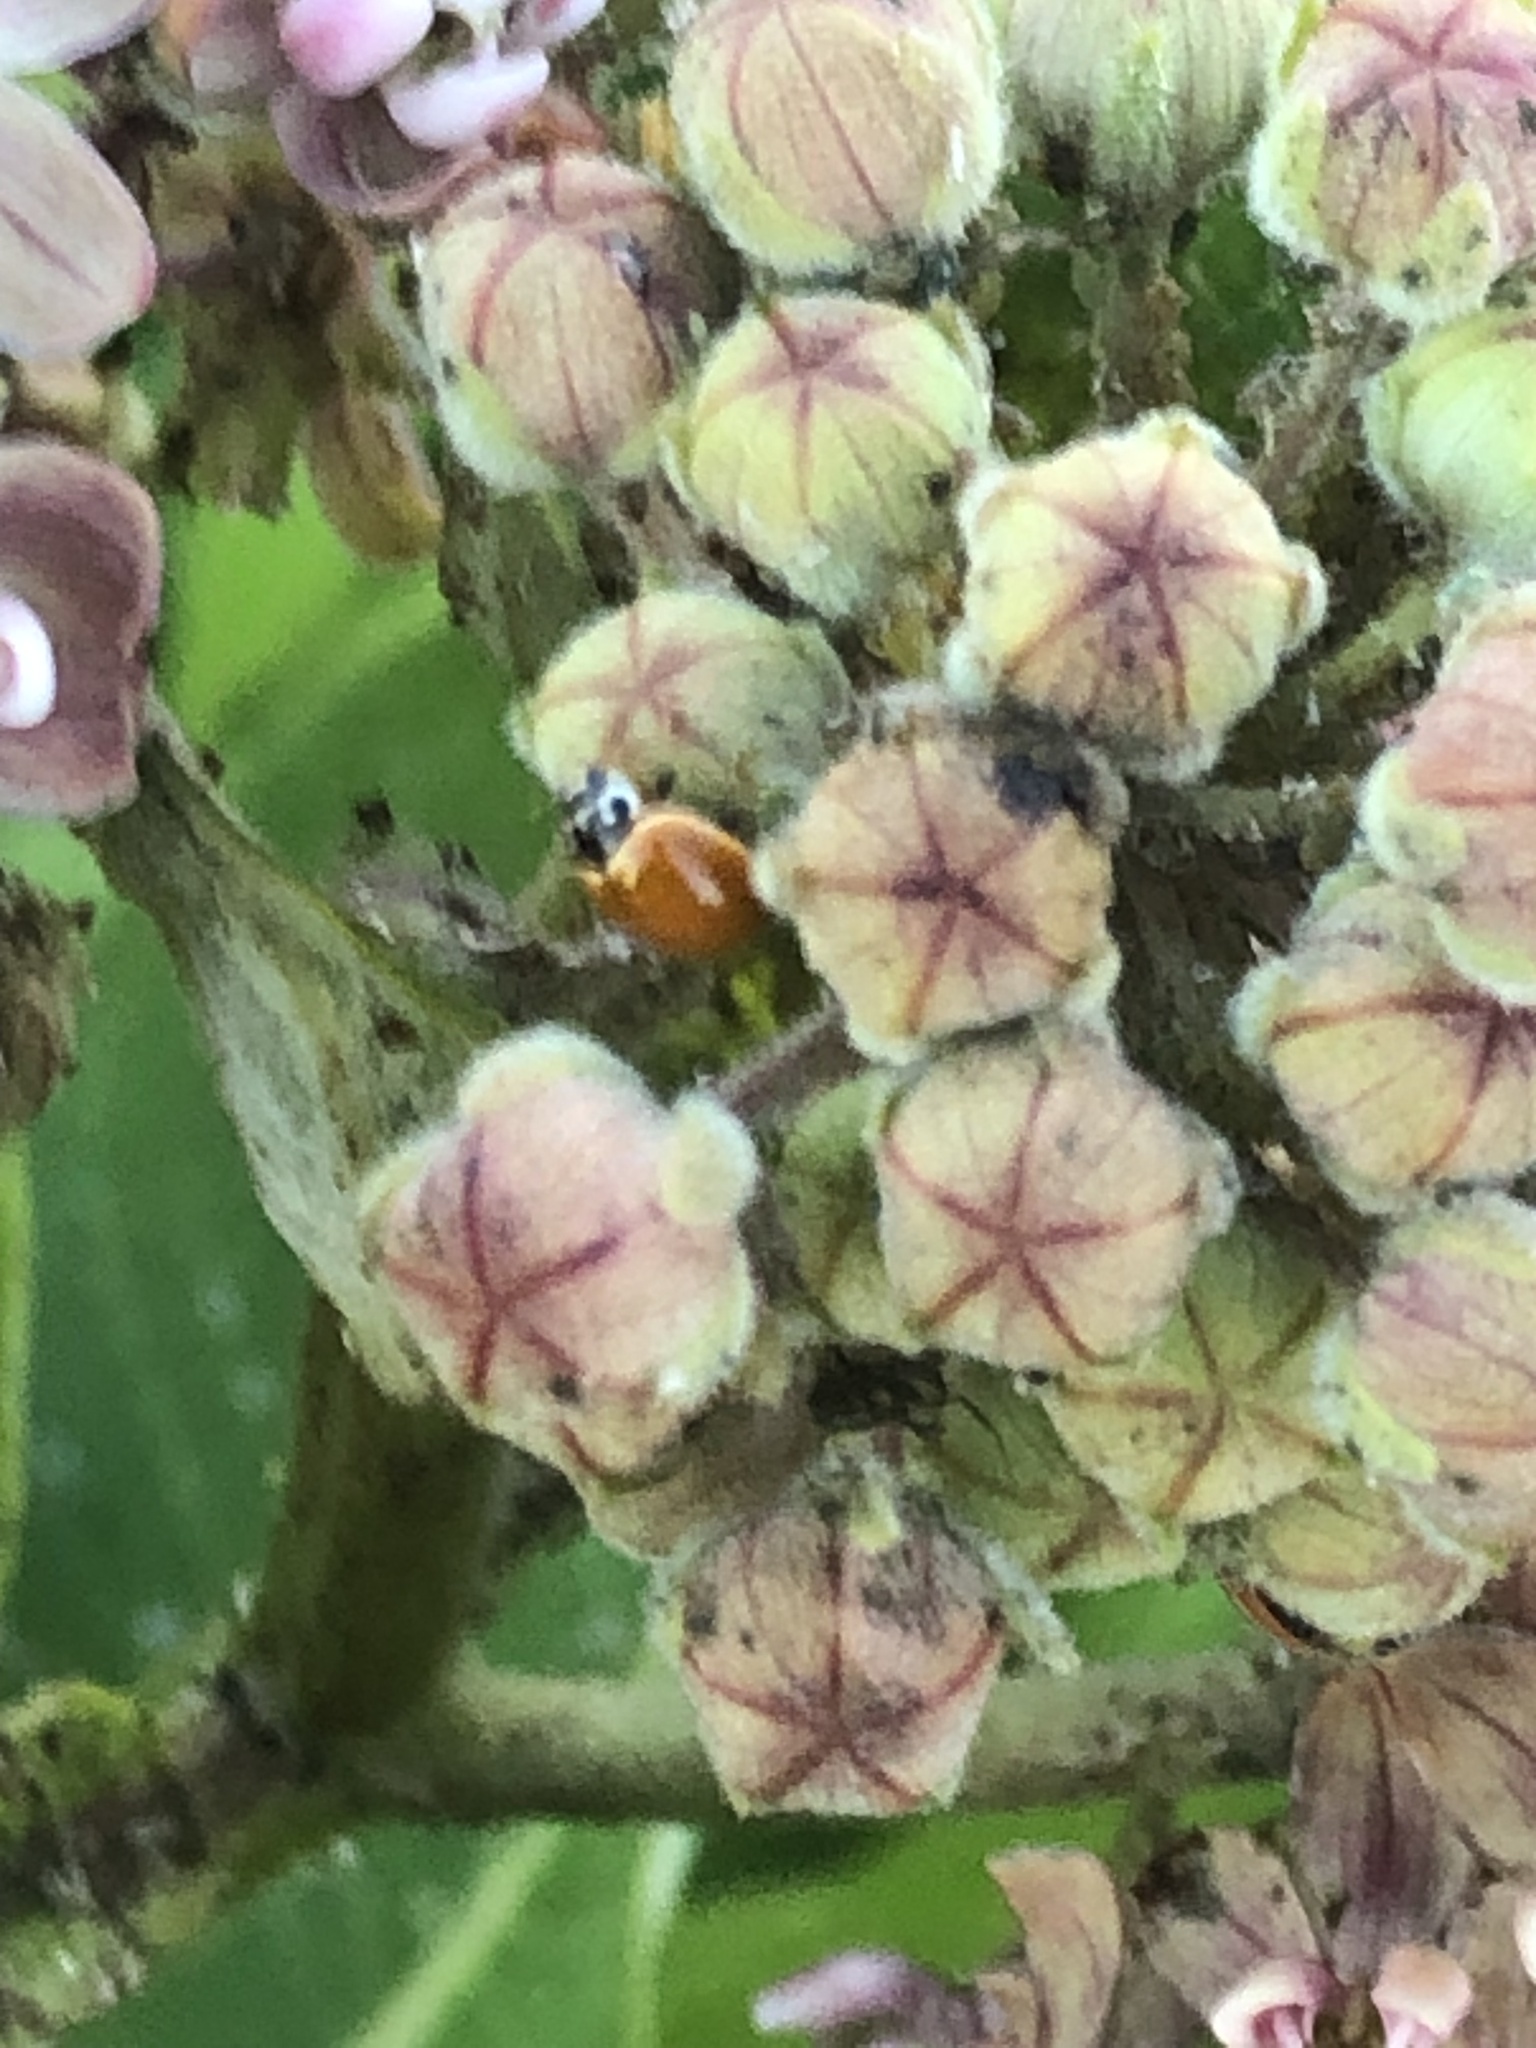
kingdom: Animalia
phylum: Arthropoda
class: Insecta
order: Coleoptera
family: Coccinellidae
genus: Cycloneda
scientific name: Cycloneda munda
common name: Polished lady beetle
